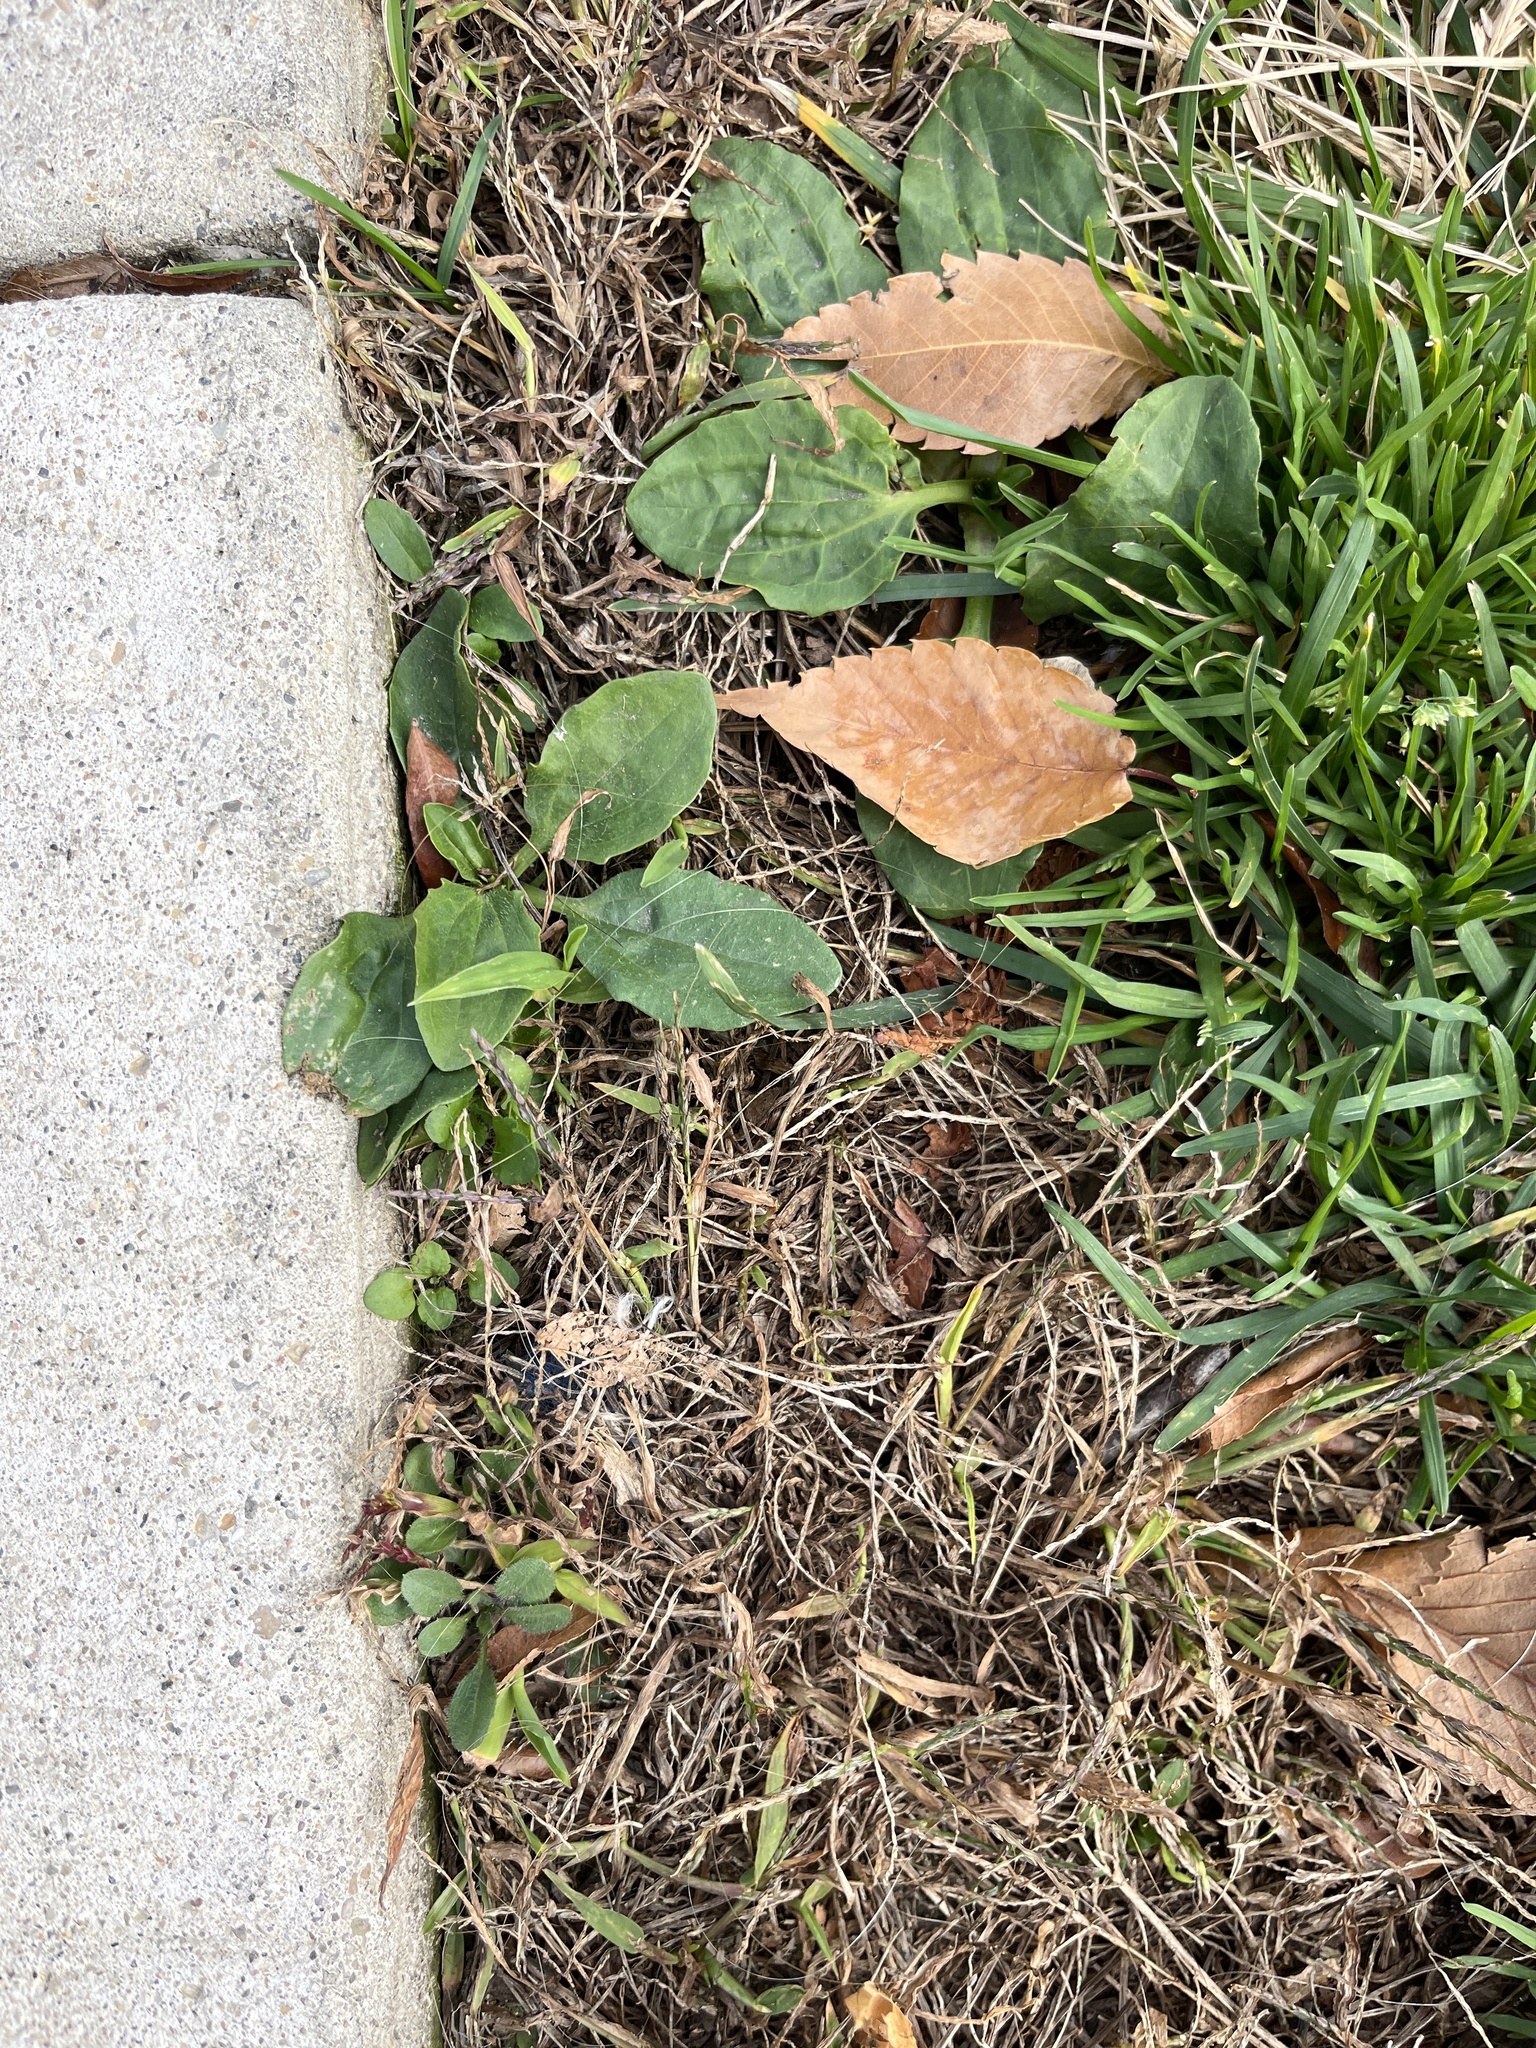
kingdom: Plantae
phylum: Tracheophyta
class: Magnoliopsida
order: Lamiales
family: Plantaginaceae
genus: Plantago
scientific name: Plantago major
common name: Common plantain
